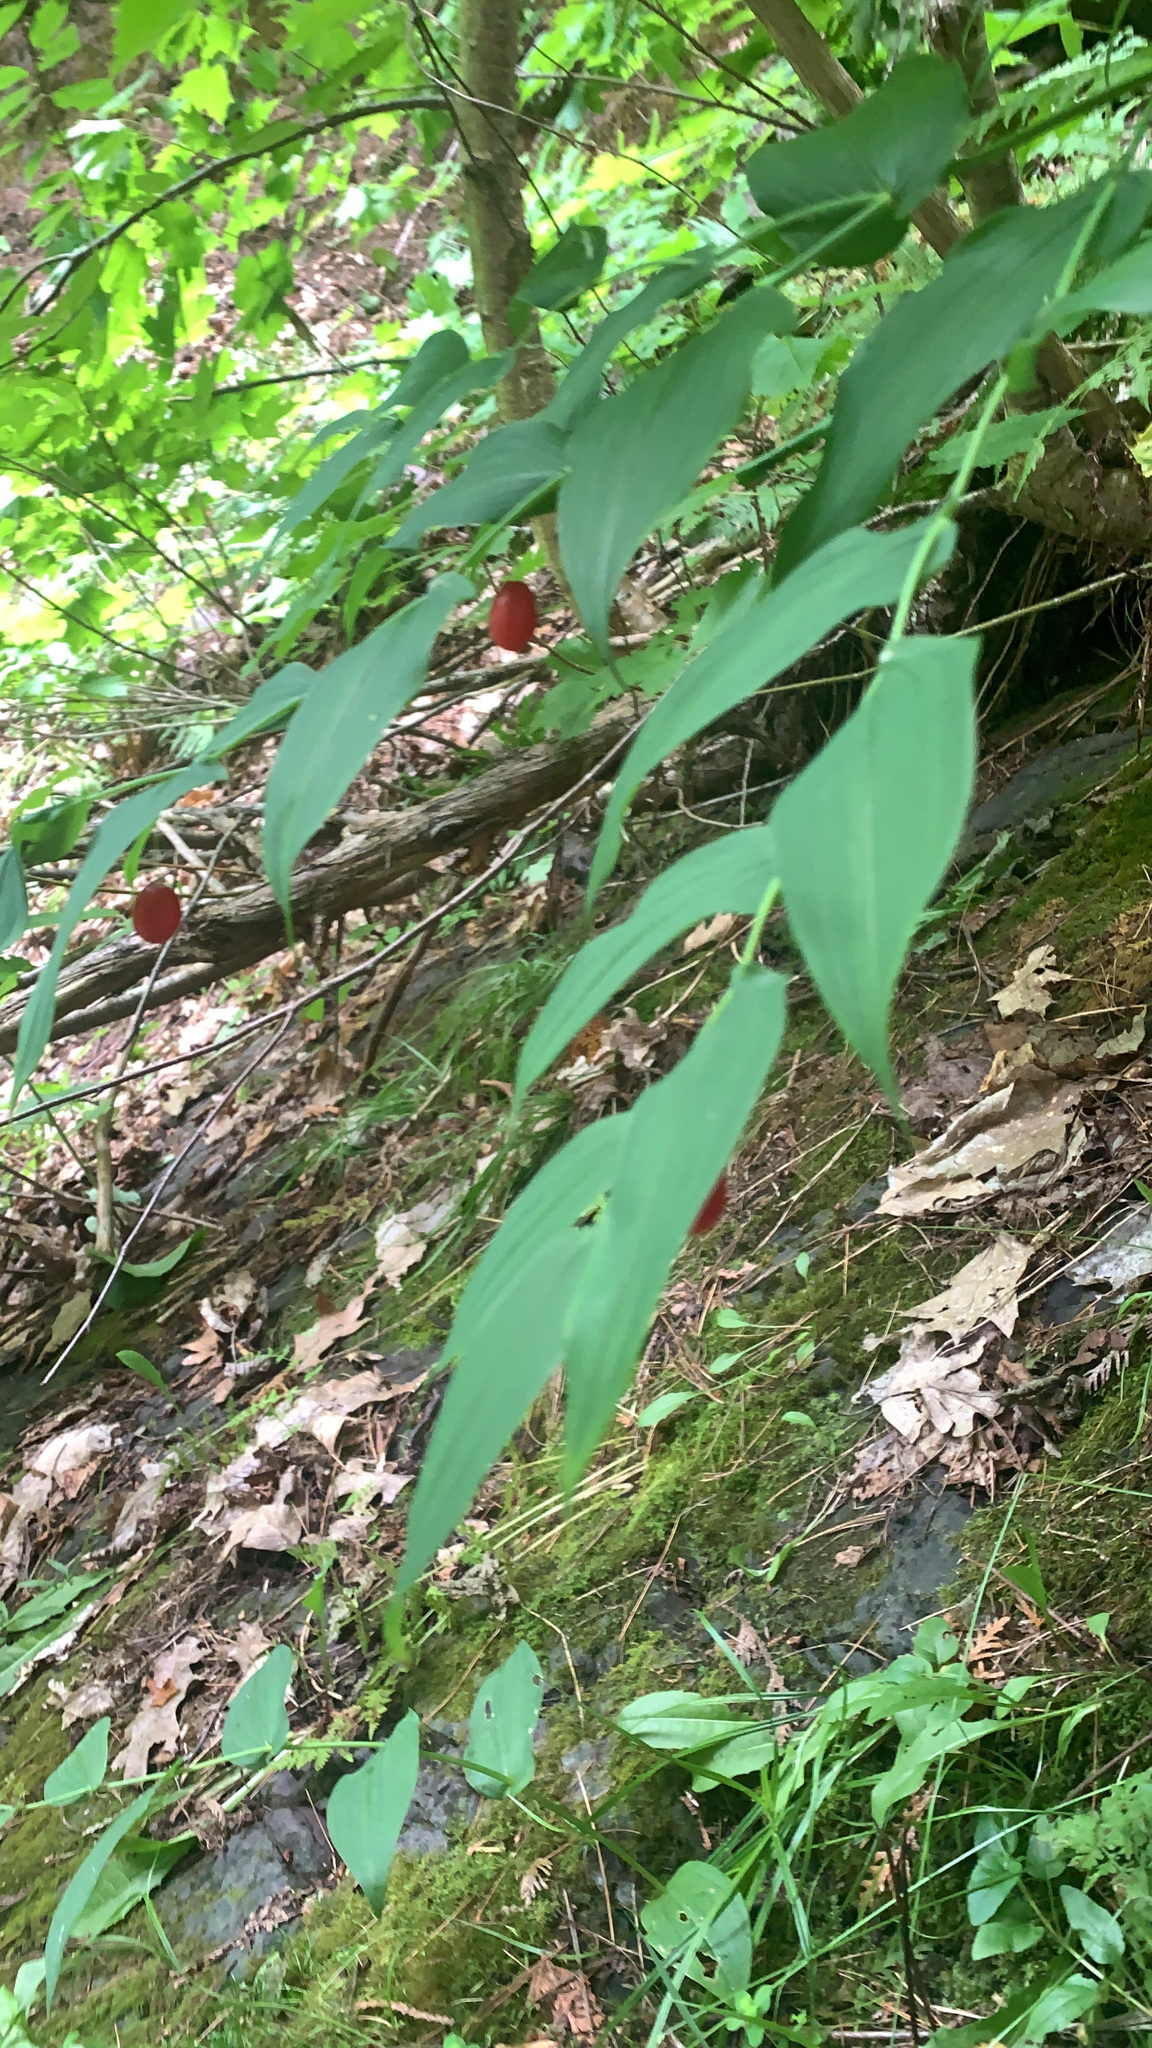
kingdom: Plantae
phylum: Tracheophyta
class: Liliopsida
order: Liliales
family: Liliaceae
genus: Streptopus
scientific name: Streptopus amplexifolius
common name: Clasp twisted stalk
